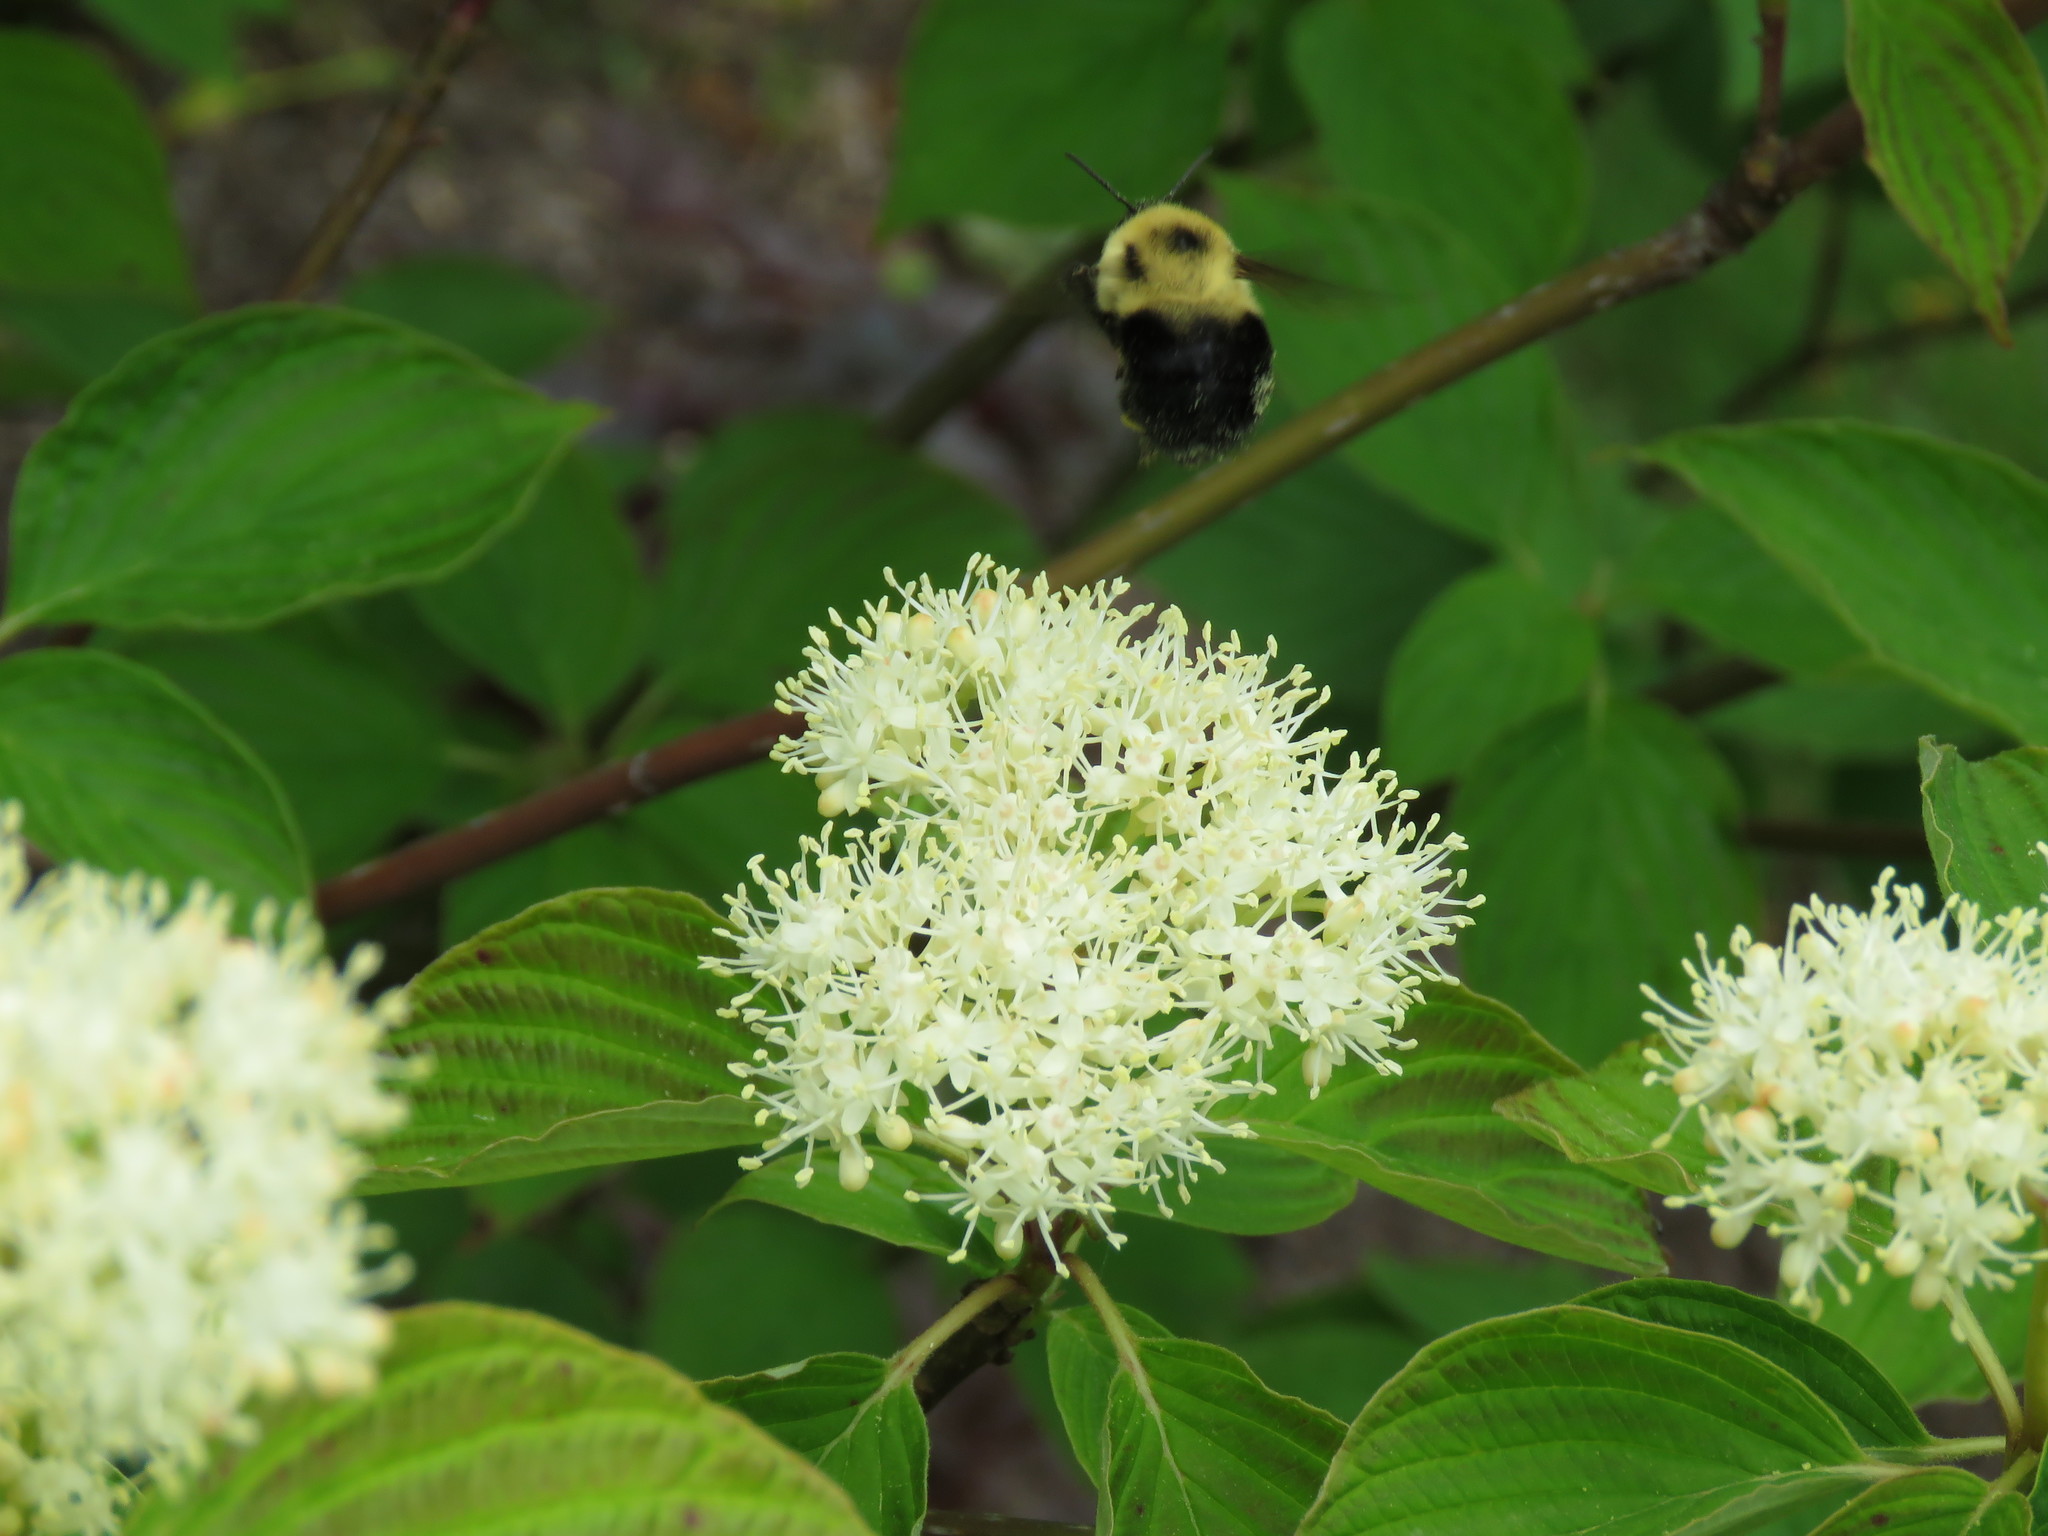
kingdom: Animalia
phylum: Arthropoda
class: Insecta
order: Hymenoptera
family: Apidae
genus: Bombus
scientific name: Bombus bimaculatus
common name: Two-spotted bumble bee
